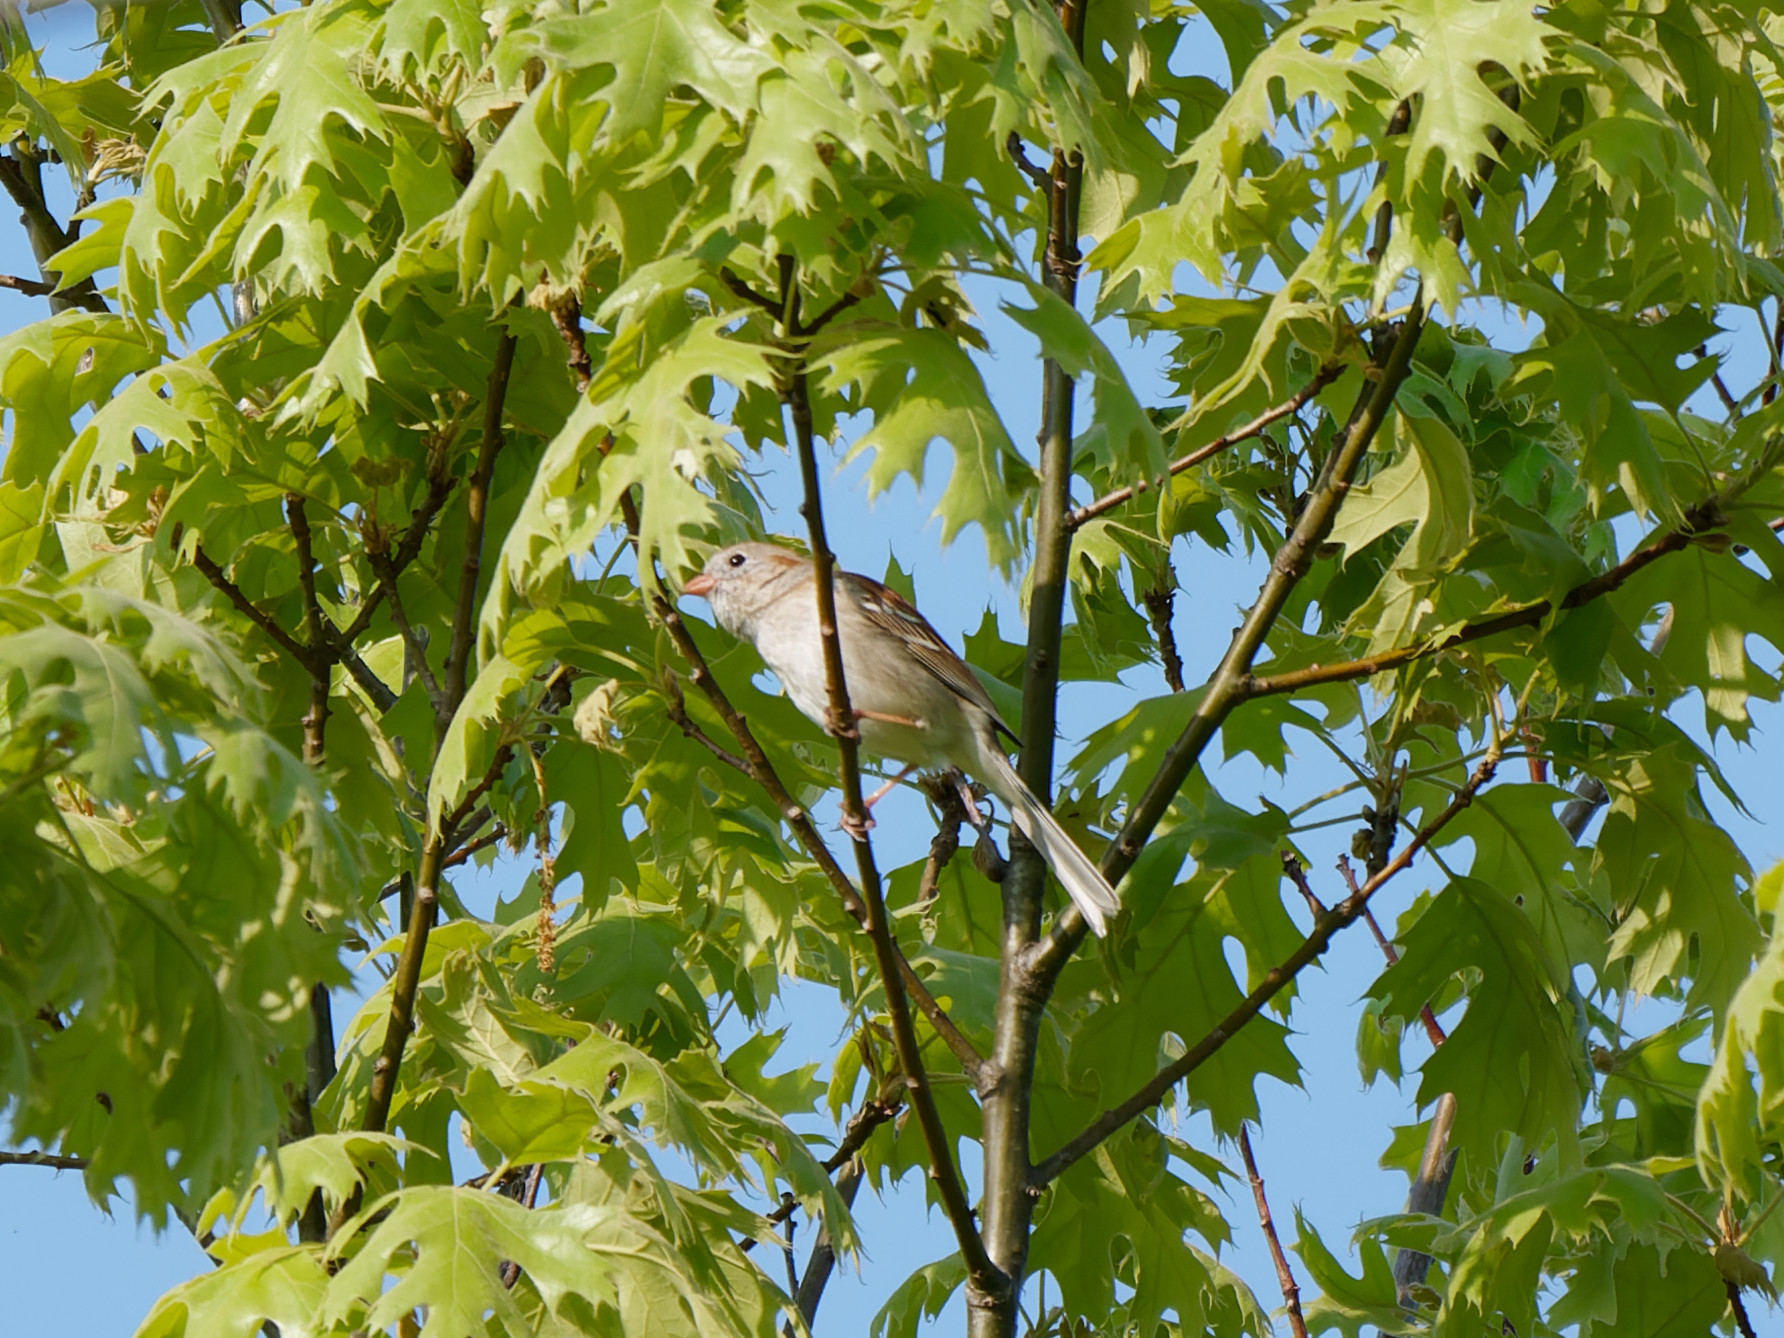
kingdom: Animalia
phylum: Chordata
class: Aves
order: Passeriformes
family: Passerellidae
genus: Spizella
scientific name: Spizella pusilla
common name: Field sparrow
